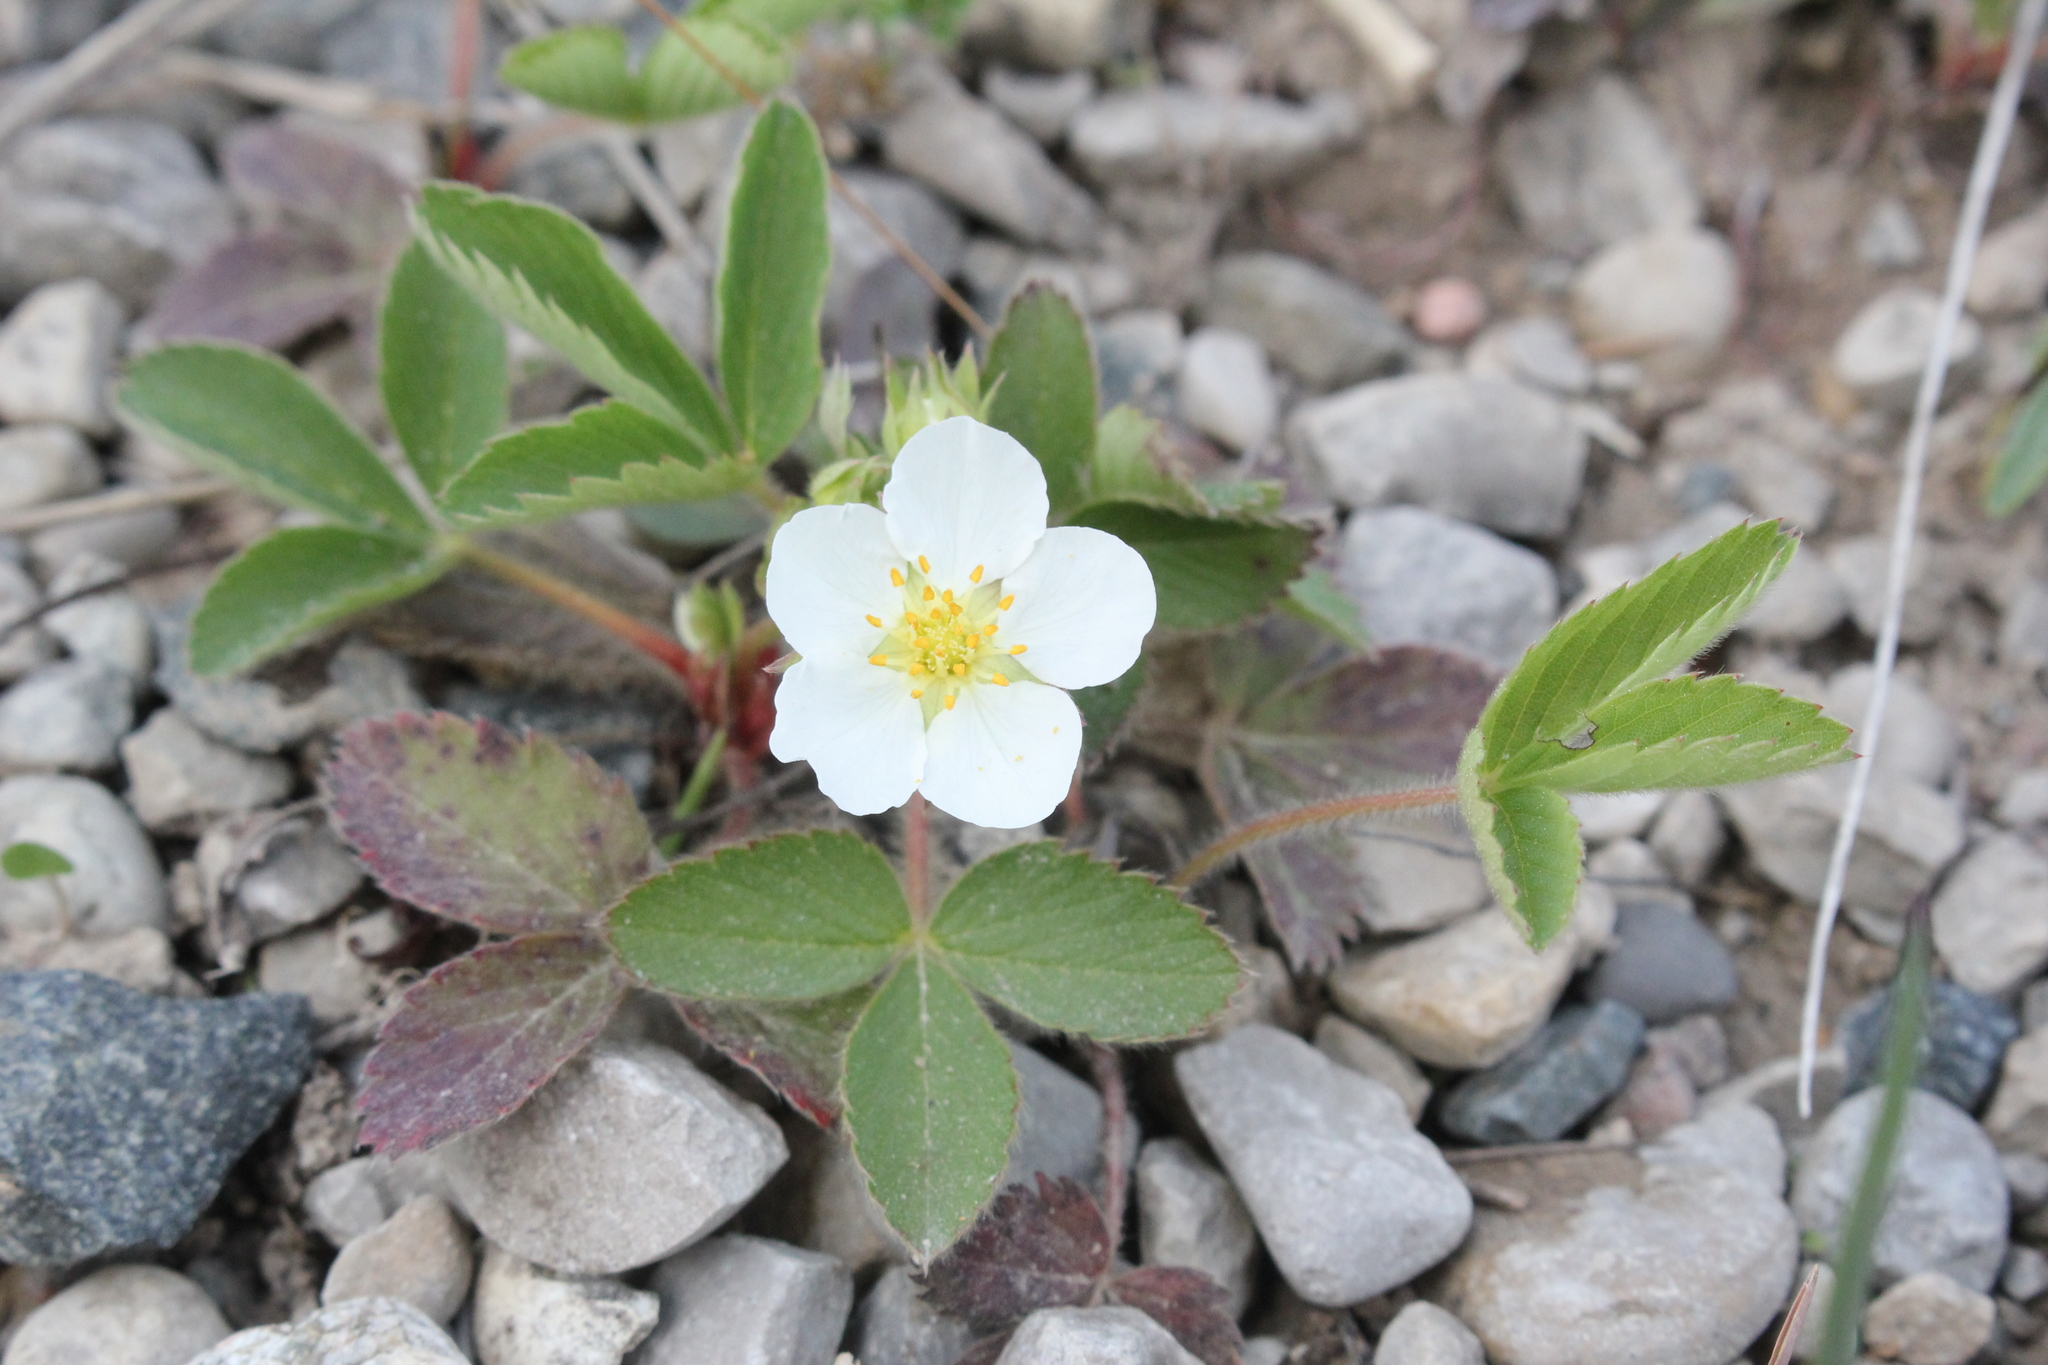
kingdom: Plantae
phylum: Tracheophyta
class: Magnoliopsida
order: Rosales
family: Rosaceae
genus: Fragaria
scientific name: Fragaria virginiana
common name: Thickleaved wild strawberry
